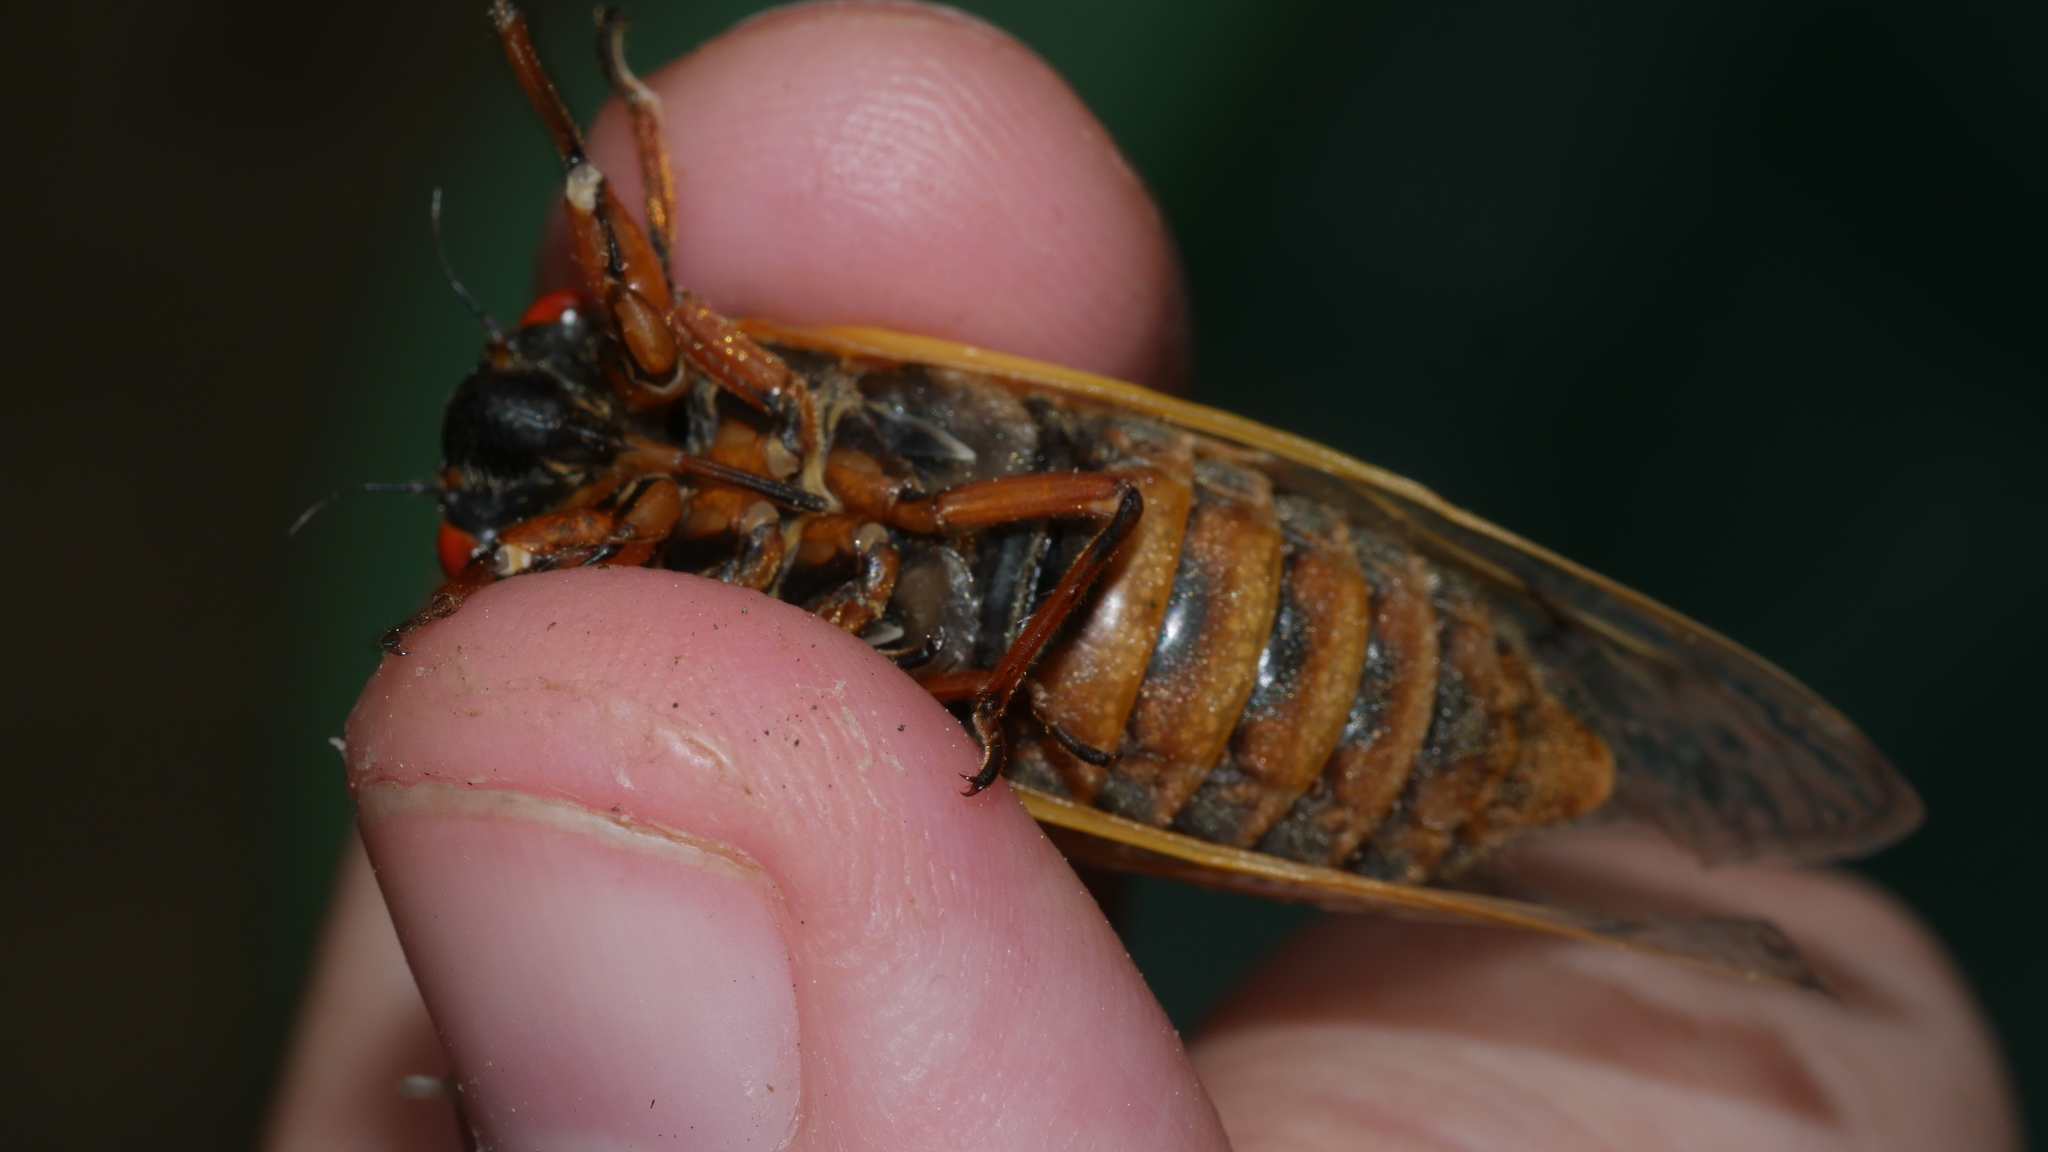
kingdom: Animalia
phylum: Arthropoda
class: Insecta
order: Hemiptera
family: Cicadidae
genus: Magicicada
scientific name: Magicicada septendecim
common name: Periodical cicada
